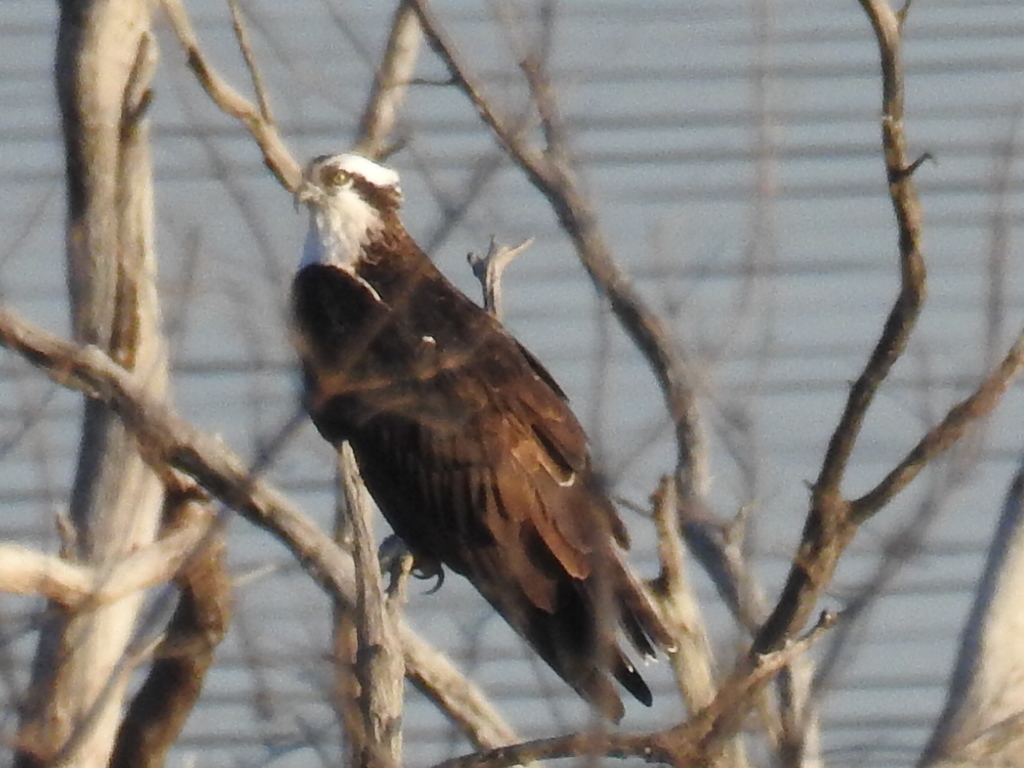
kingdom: Animalia
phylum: Chordata
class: Aves
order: Accipitriformes
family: Pandionidae
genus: Pandion
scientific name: Pandion haliaetus
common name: Osprey
